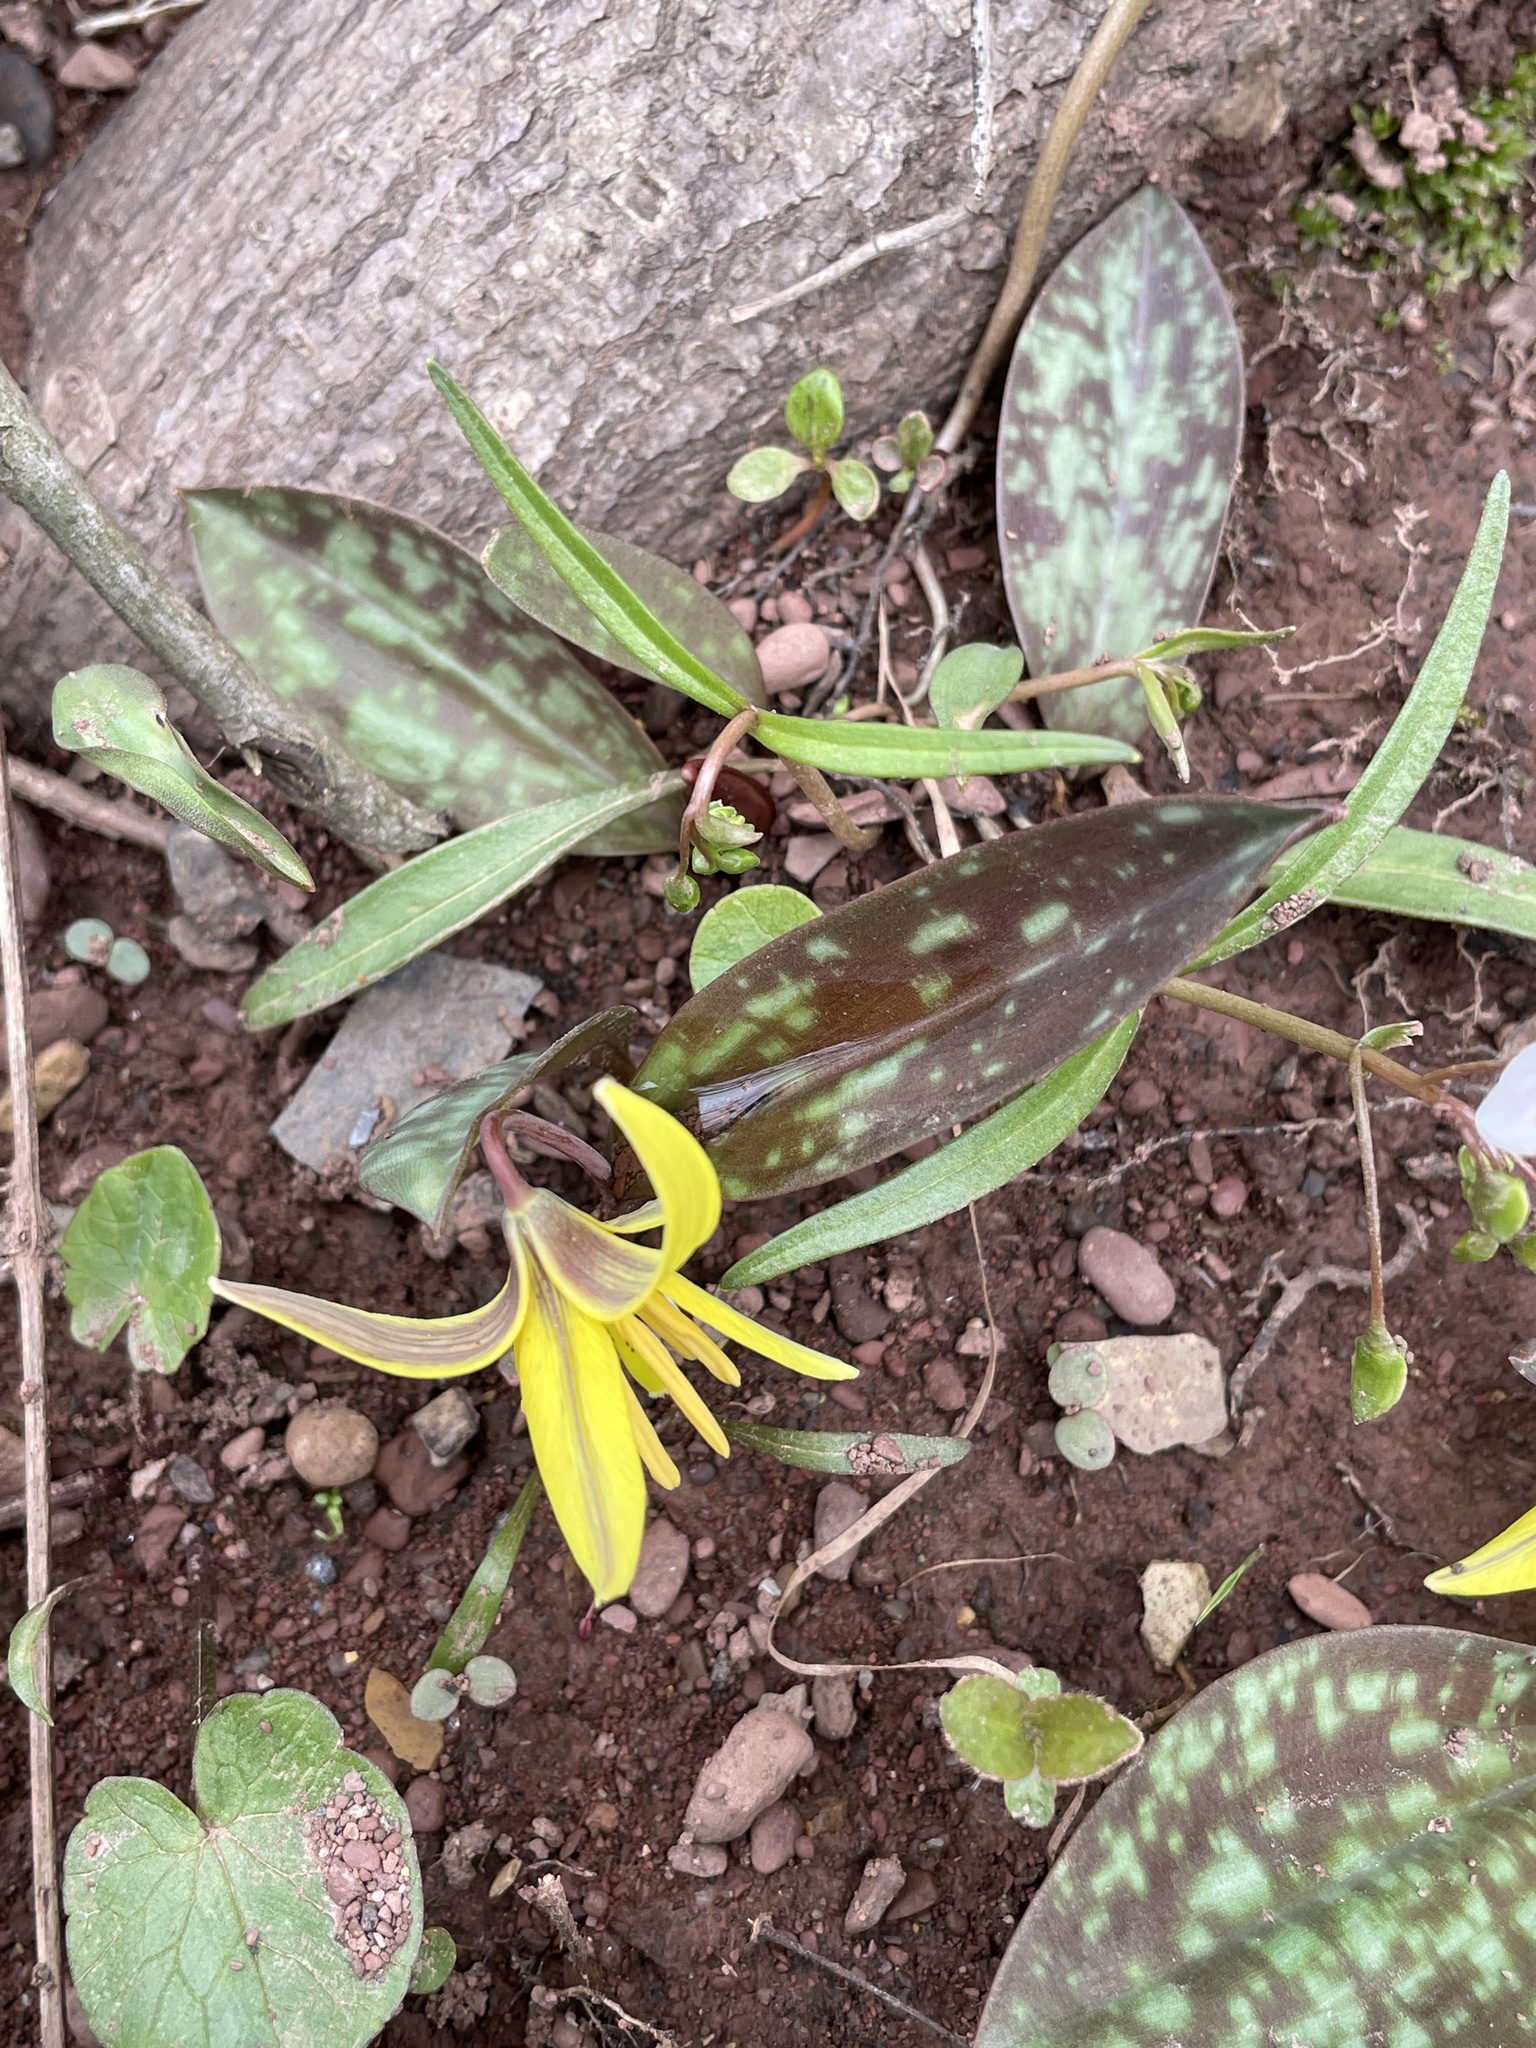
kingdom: Plantae
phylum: Tracheophyta
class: Liliopsida
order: Liliales
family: Liliaceae
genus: Erythronium
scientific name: Erythronium americanum
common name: Yellow adder's-tongue
